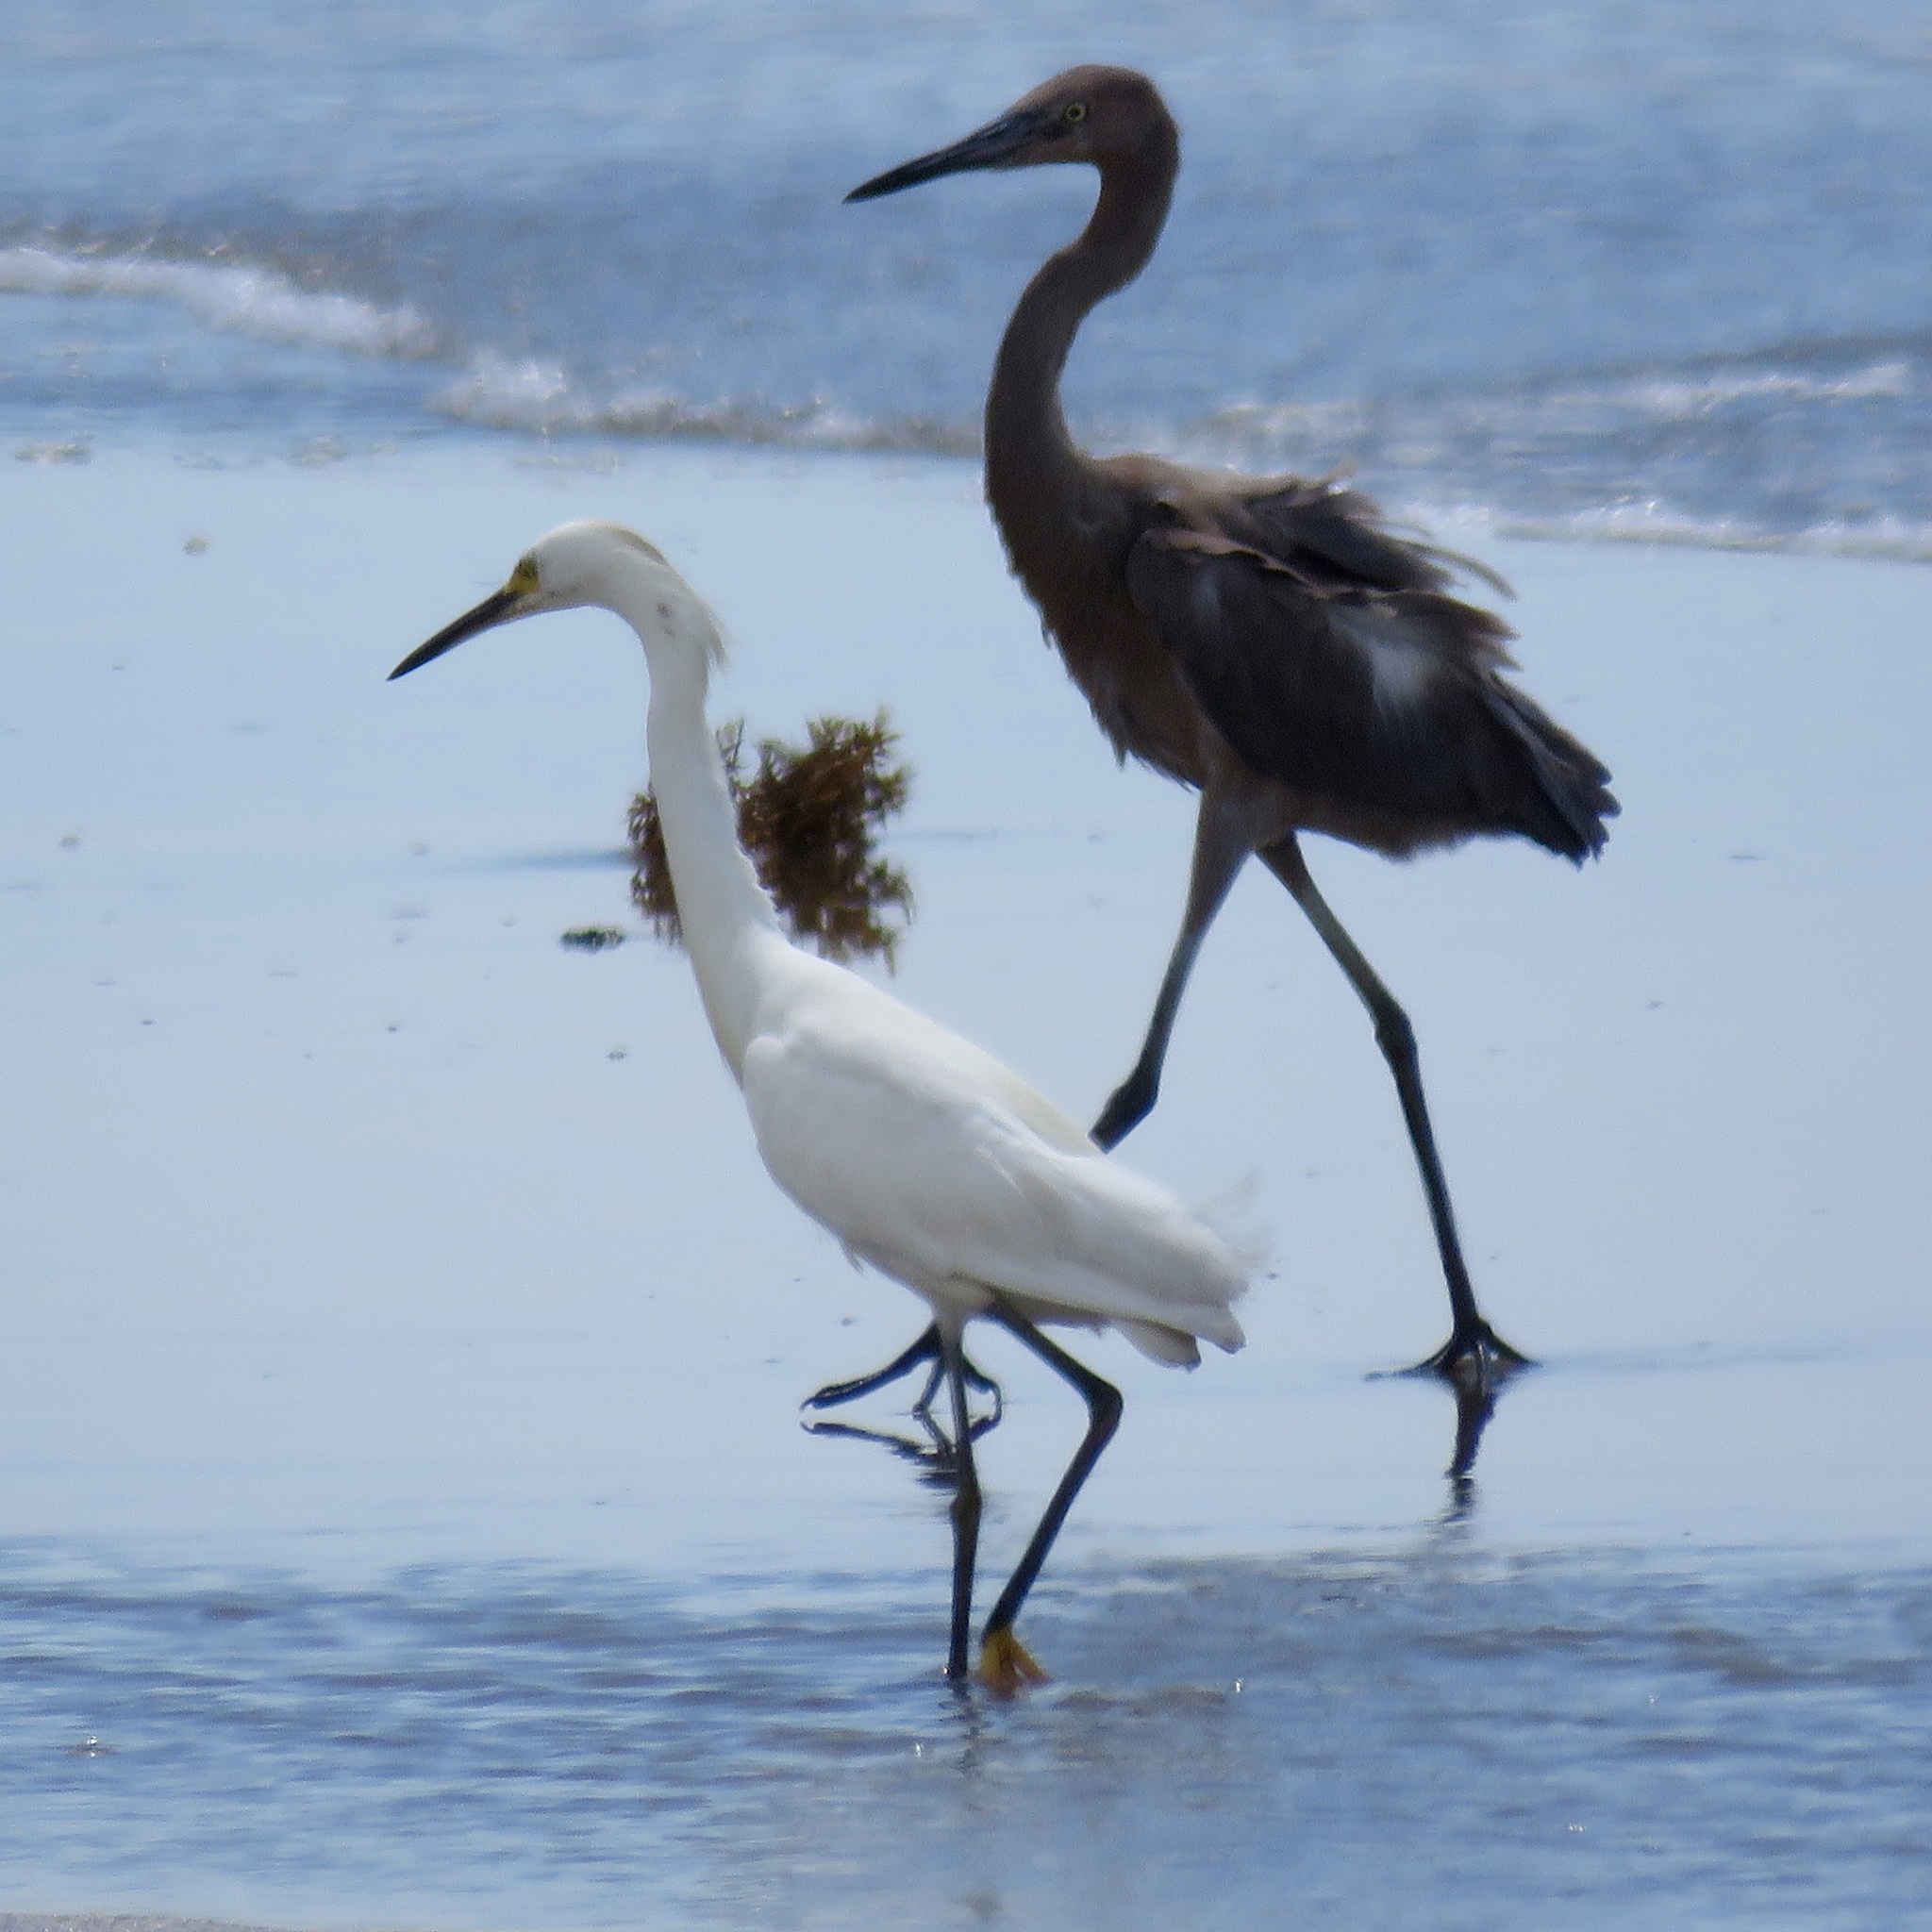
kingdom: Animalia
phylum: Chordata
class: Aves
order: Pelecaniformes
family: Ardeidae
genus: Egretta
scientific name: Egretta rufescens
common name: Reddish egret
